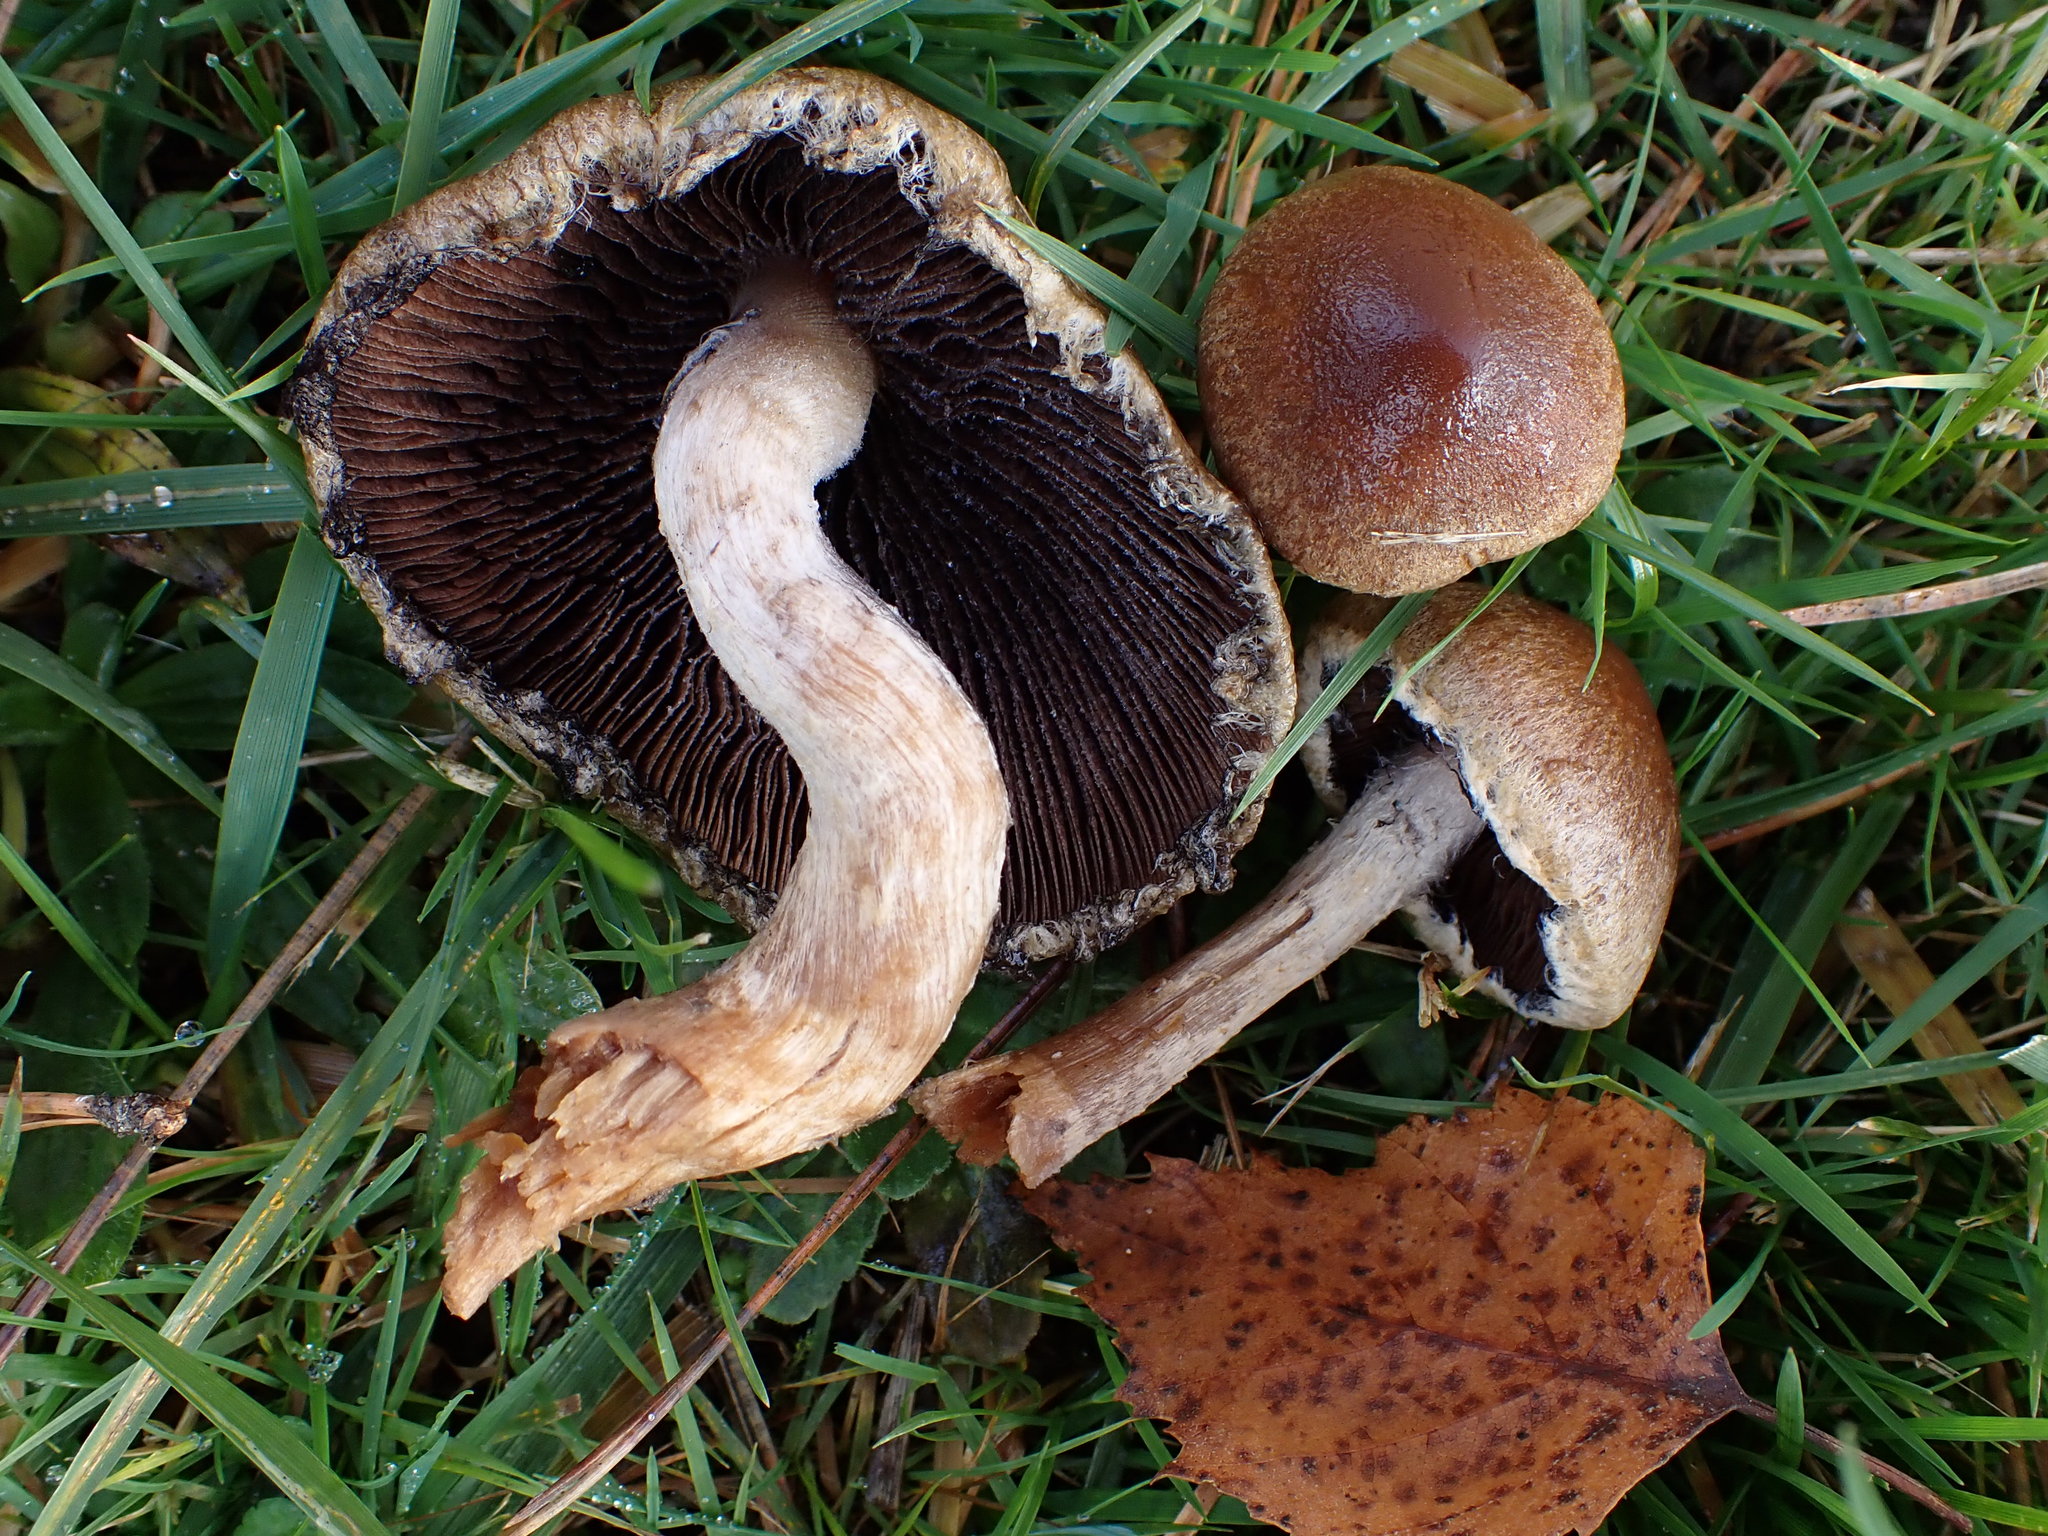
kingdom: Fungi
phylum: Basidiomycota
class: Agaricomycetes
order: Agaricales
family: Psathyrellaceae
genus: Lacrymaria
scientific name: Lacrymaria lacrymabunda
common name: Weeping widow
